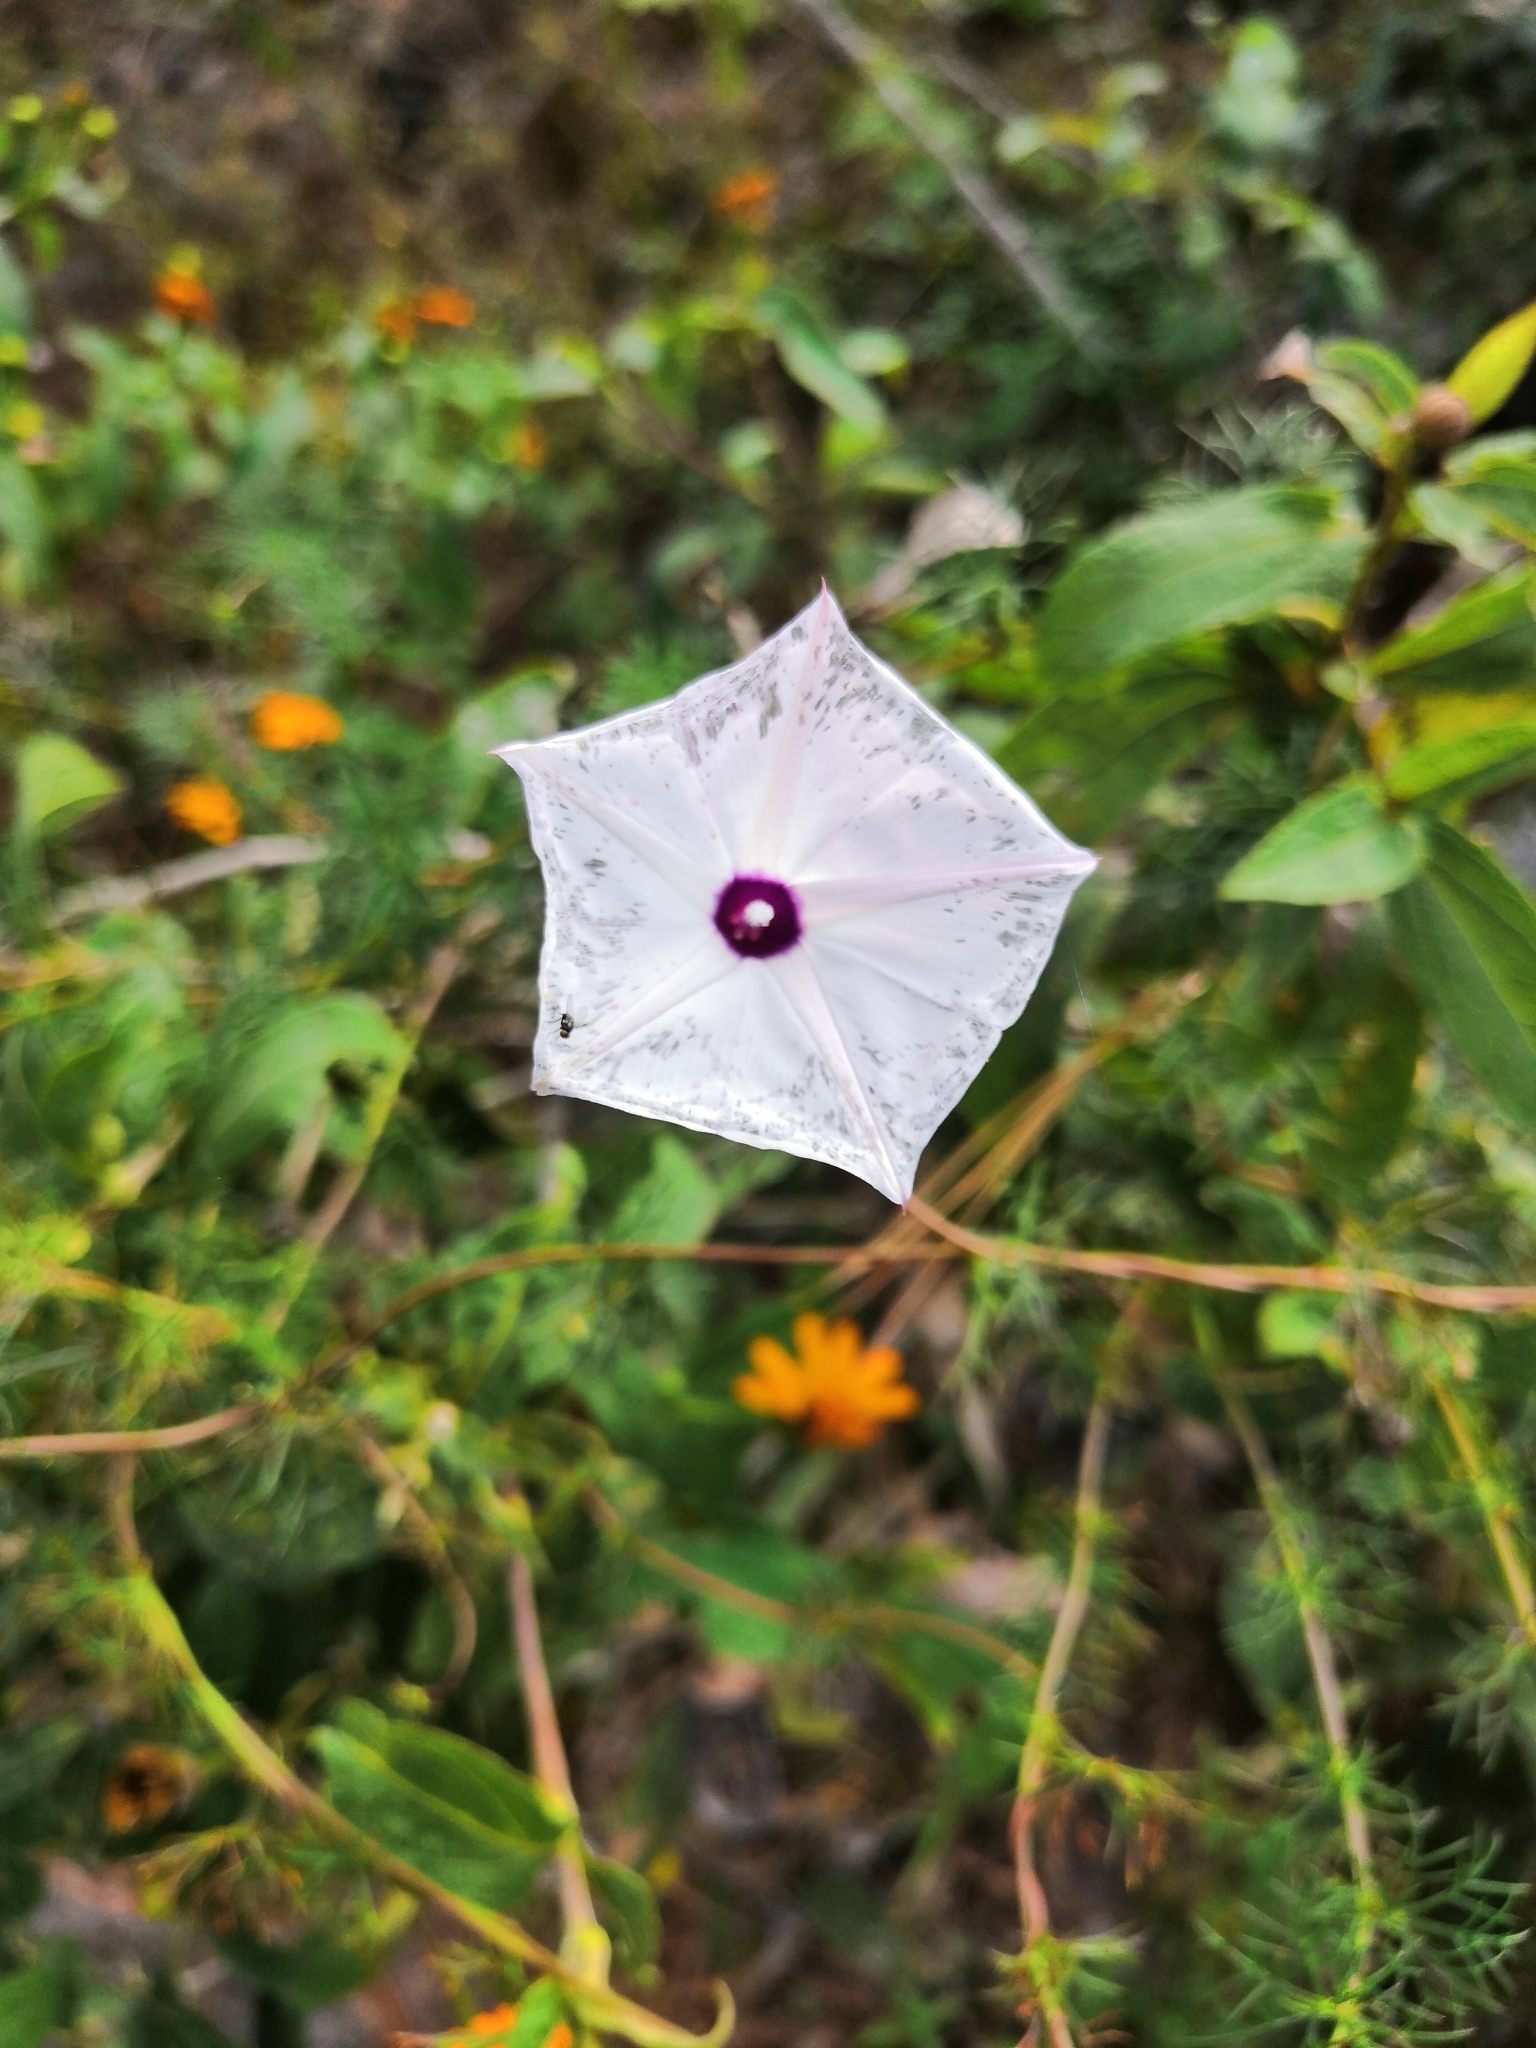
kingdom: Plantae
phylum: Tracheophyta
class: Magnoliopsida
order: Solanales
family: Convolvulaceae
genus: Ipomoea
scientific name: Ipomoea perpartita
